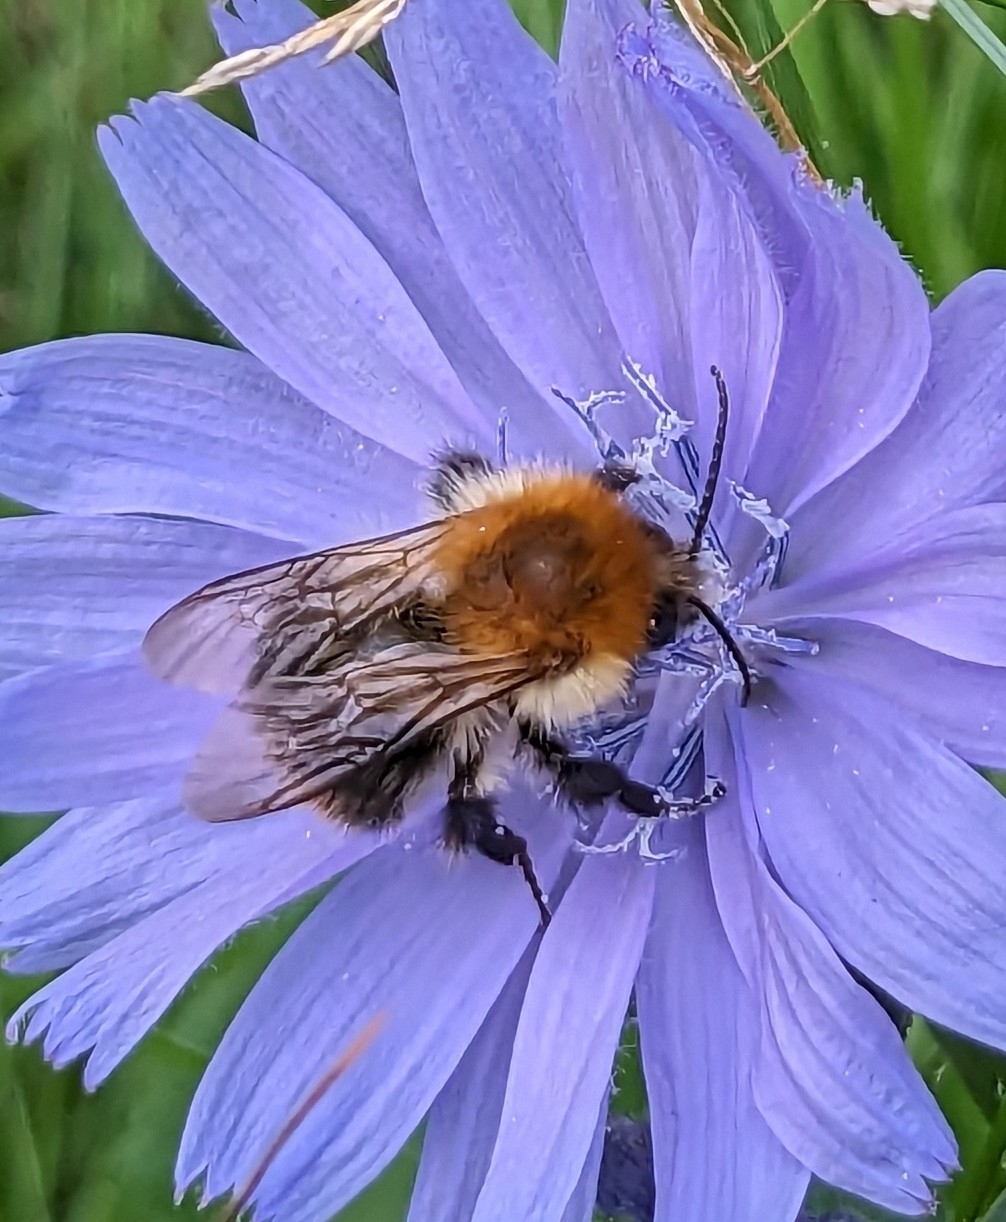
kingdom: Animalia
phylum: Arthropoda
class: Insecta
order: Hymenoptera
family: Apidae
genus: Bombus
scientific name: Bombus pascuorum
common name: Common carder bee
